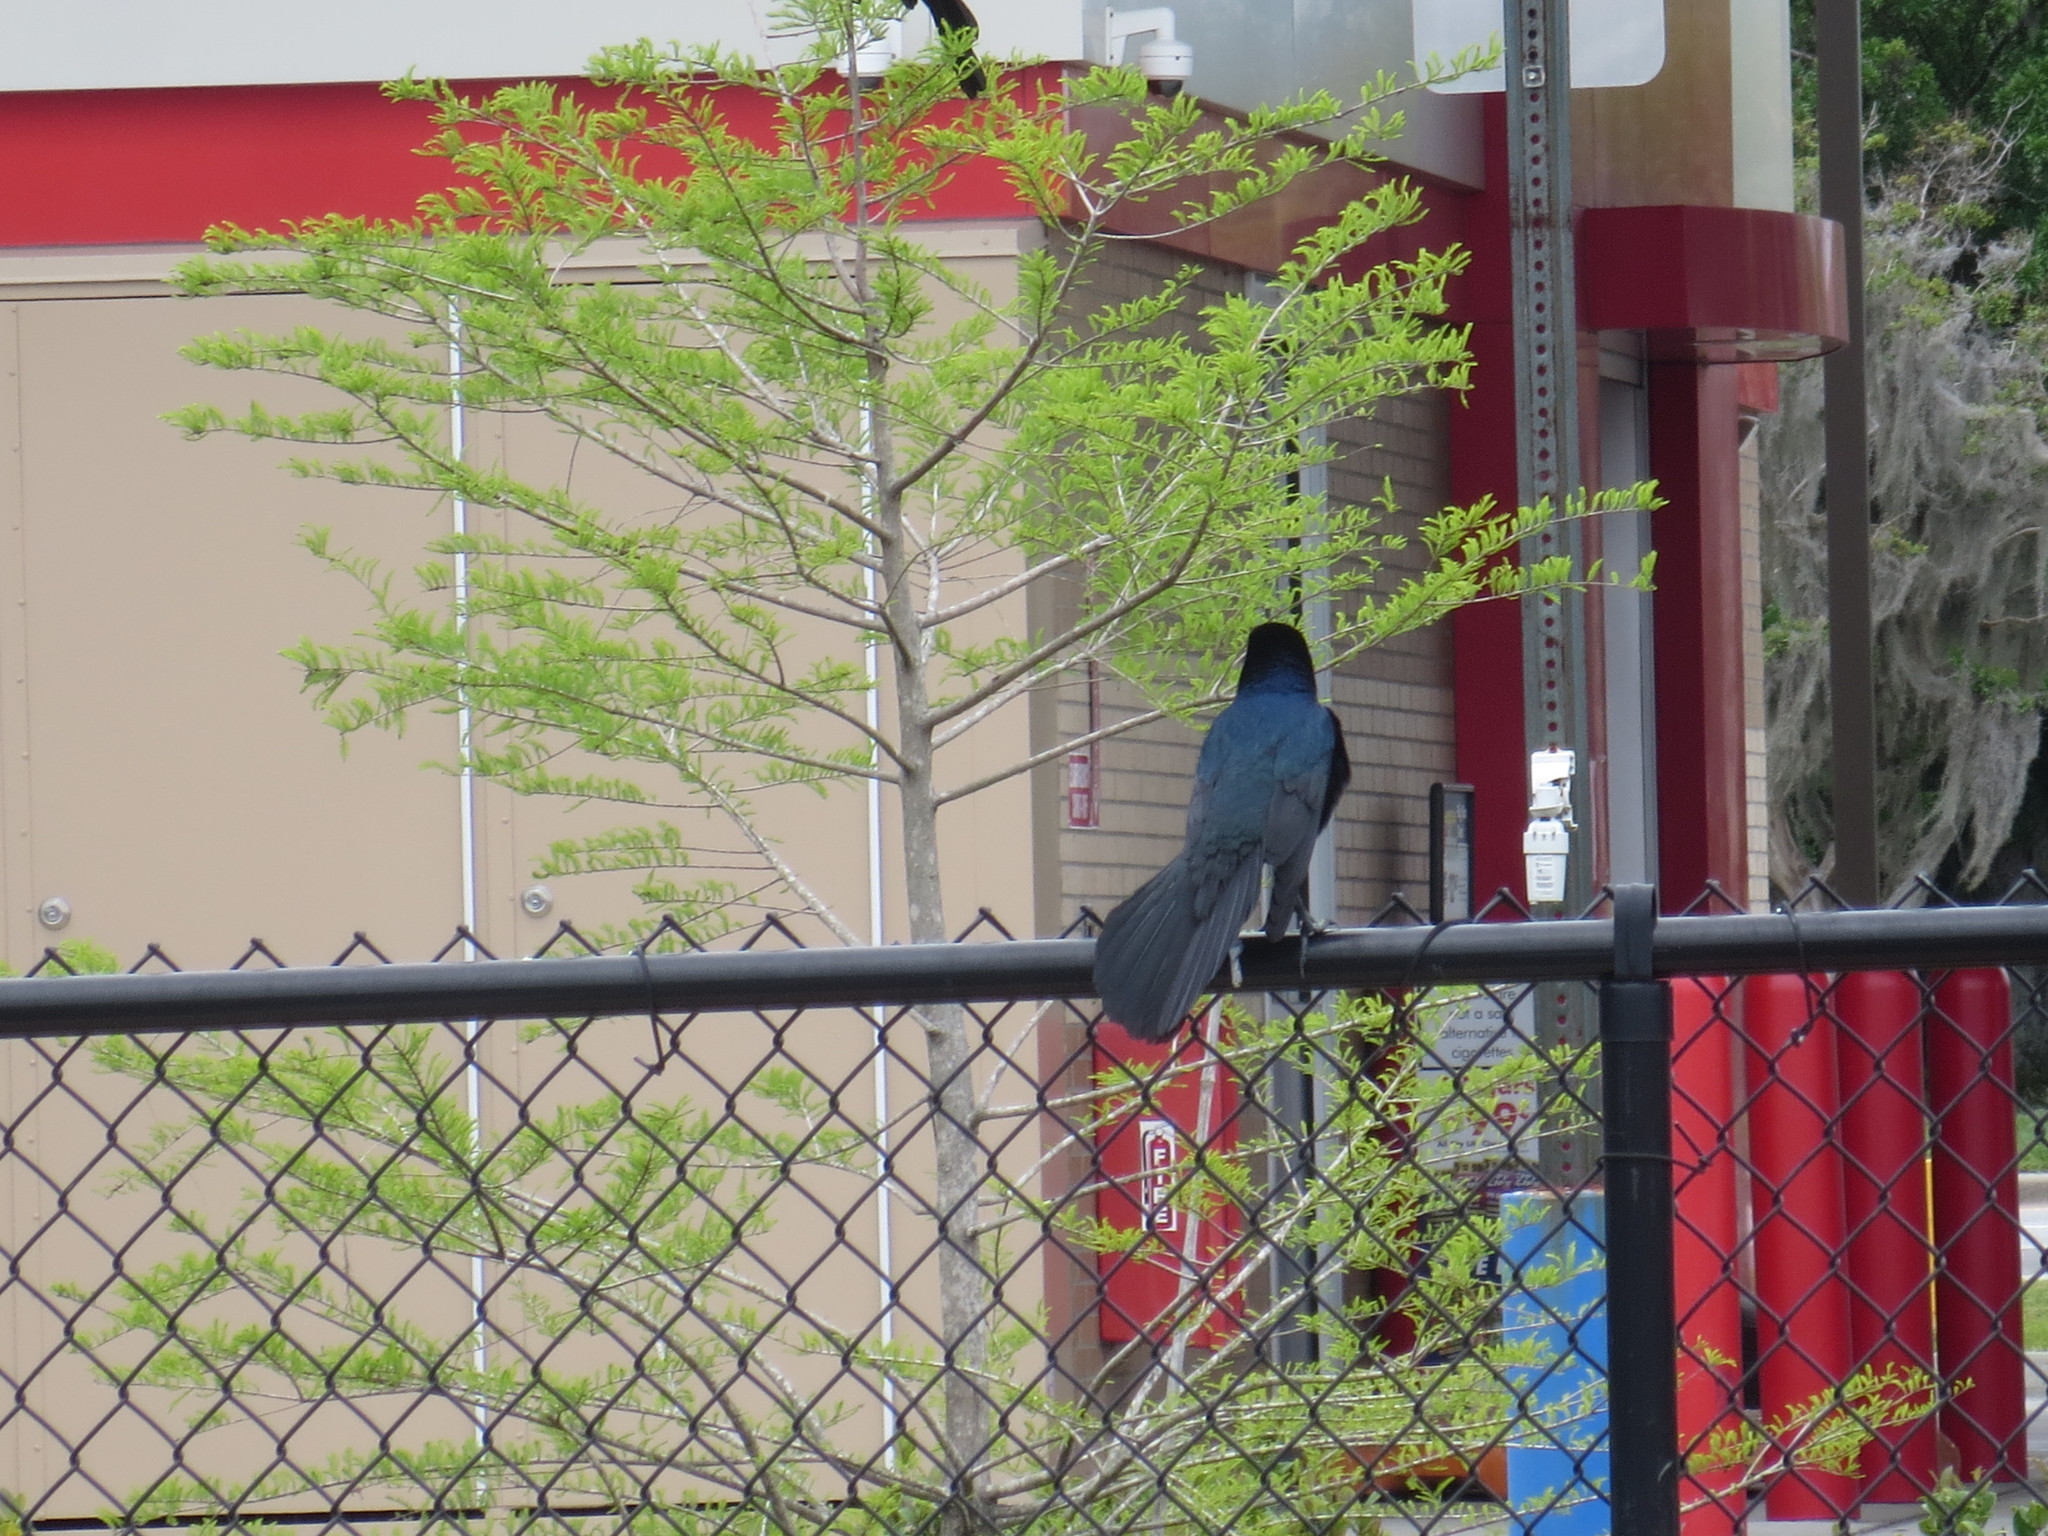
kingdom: Animalia
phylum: Chordata
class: Aves
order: Passeriformes
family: Icteridae
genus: Quiscalus
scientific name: Quiscalus major
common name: Boat-tailed grackle
